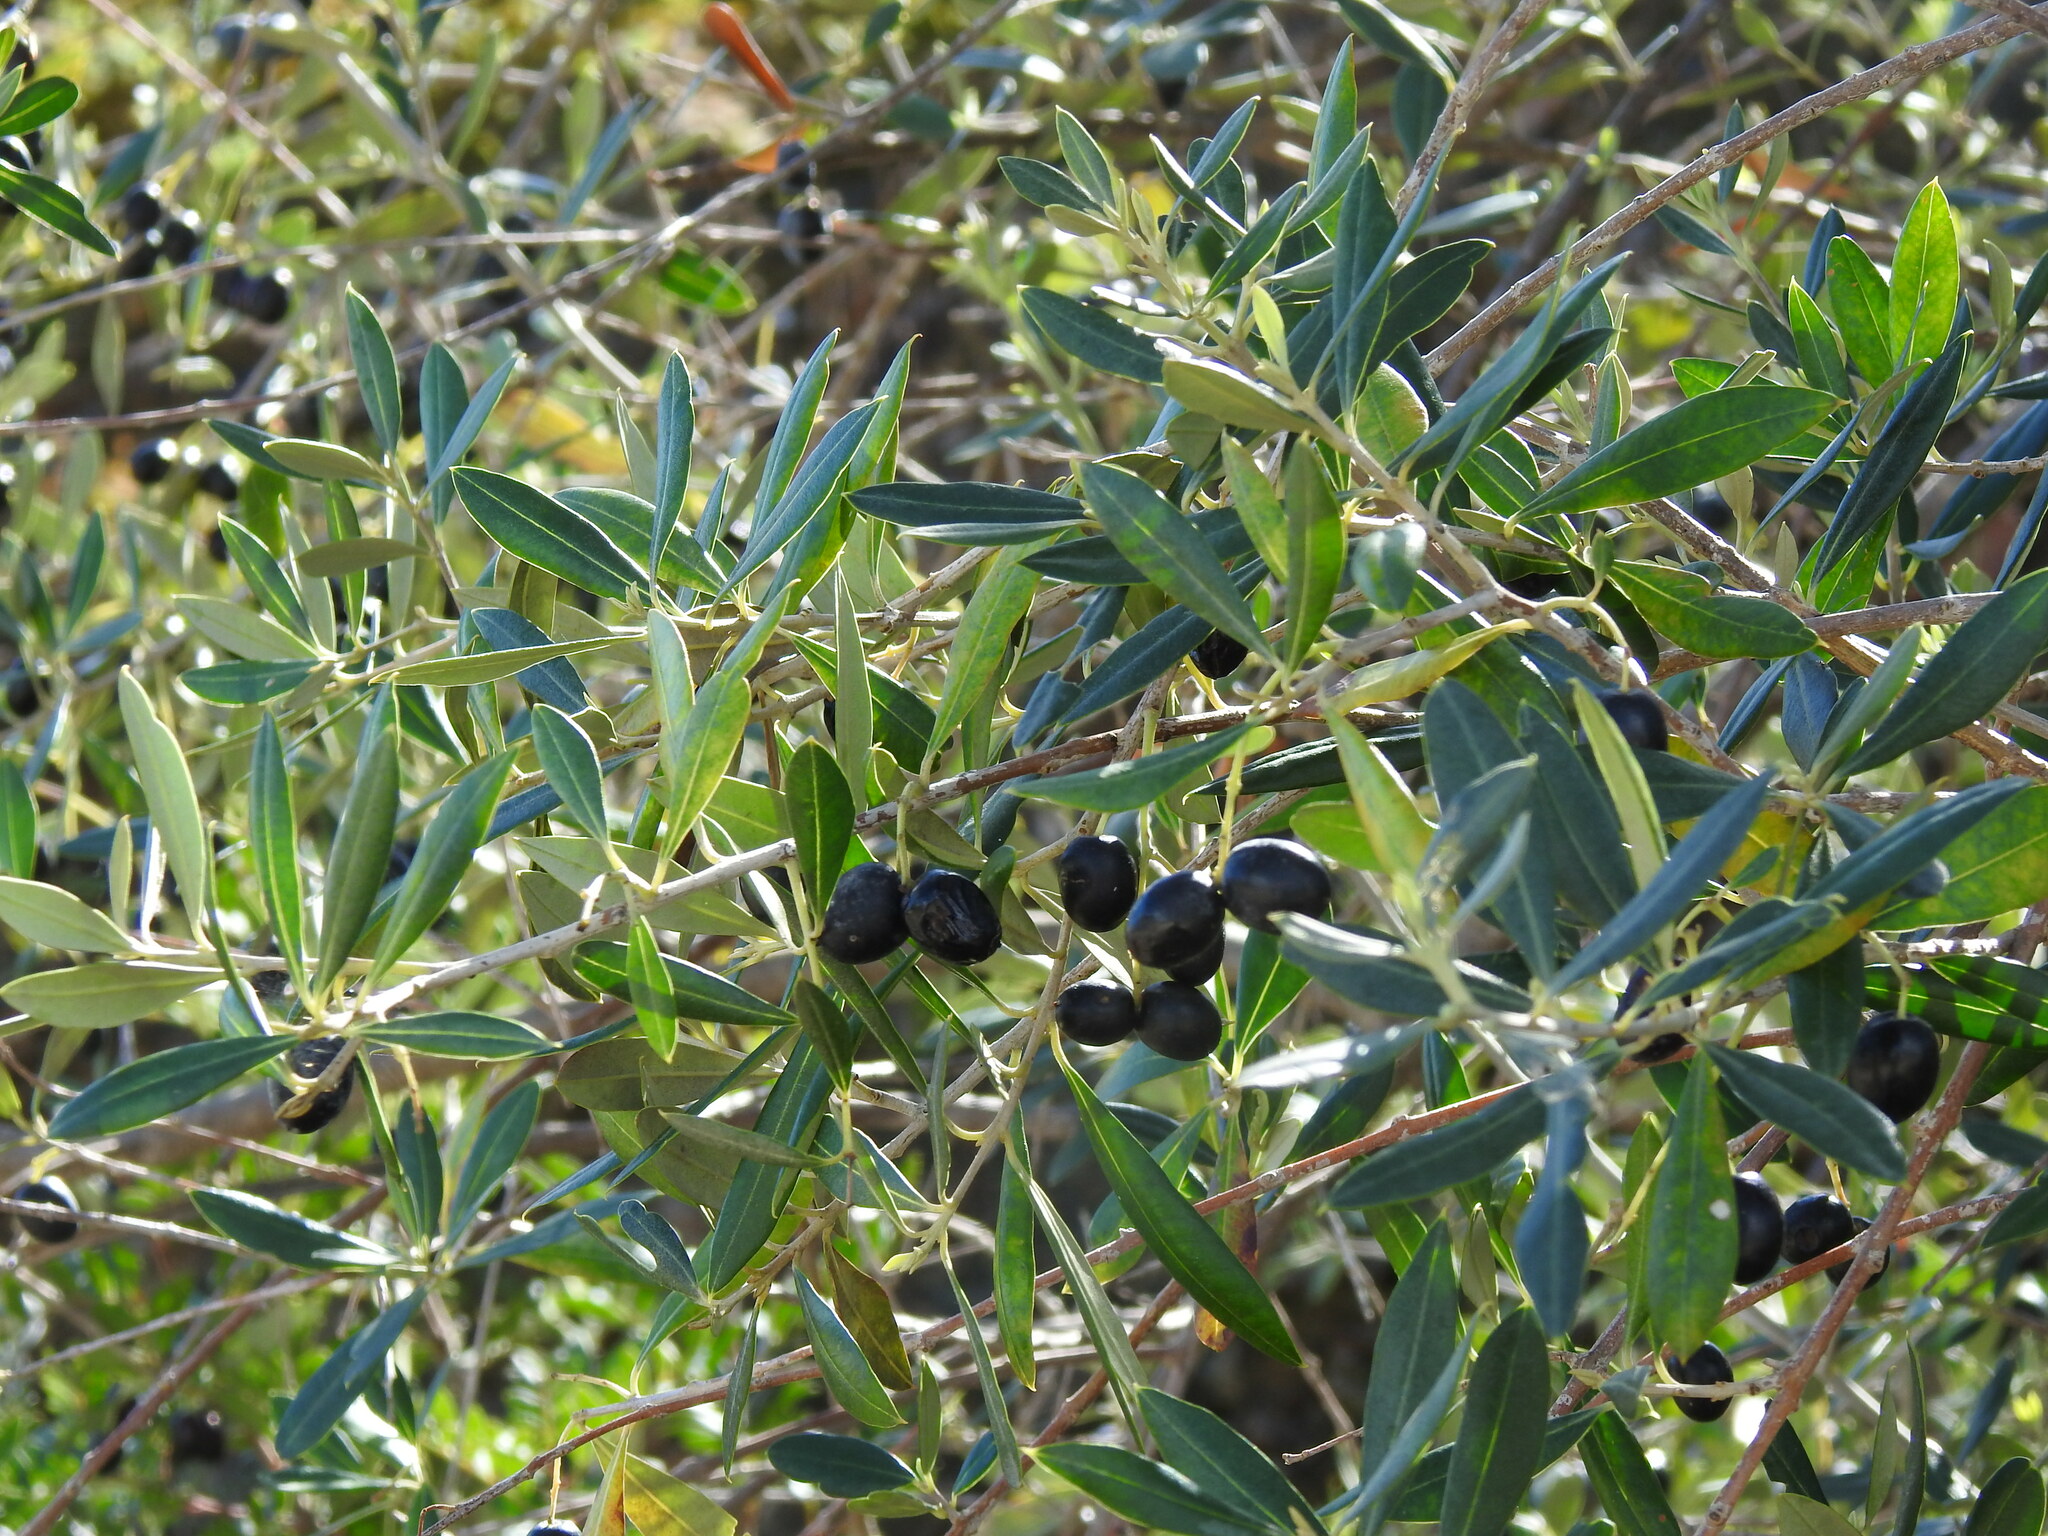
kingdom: Plantae
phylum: Tracheophyta
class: Magnoliopsida
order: Lamiales
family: Oleaceae
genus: Olea
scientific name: Olea europaea
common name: Olive
